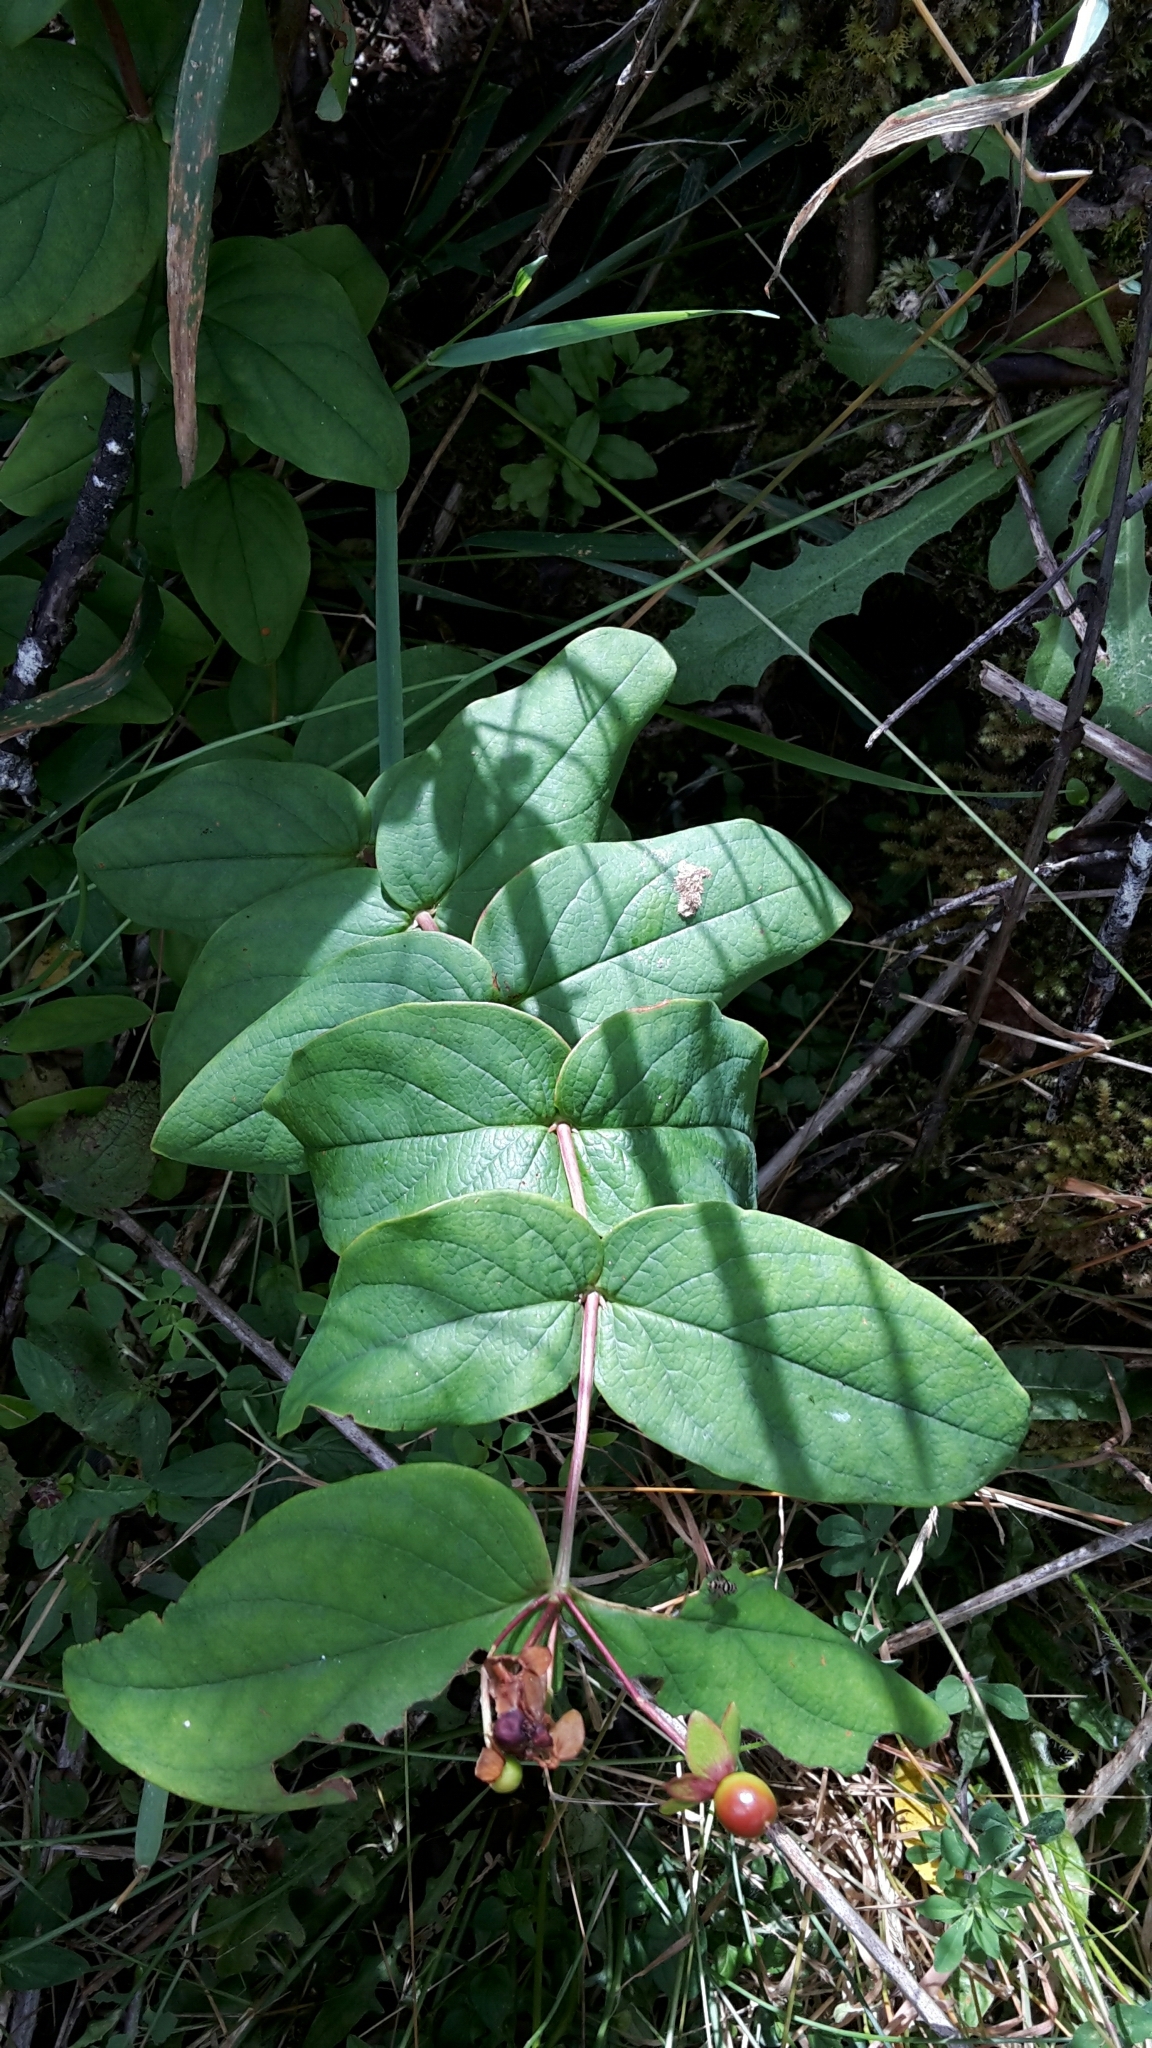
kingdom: Plantae
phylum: Tracheophyta
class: Magnoliopsida
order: Malpighiales
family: Hypericaceae
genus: Hypericum
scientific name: Hypericum androsaemum
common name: Sweet-amber
